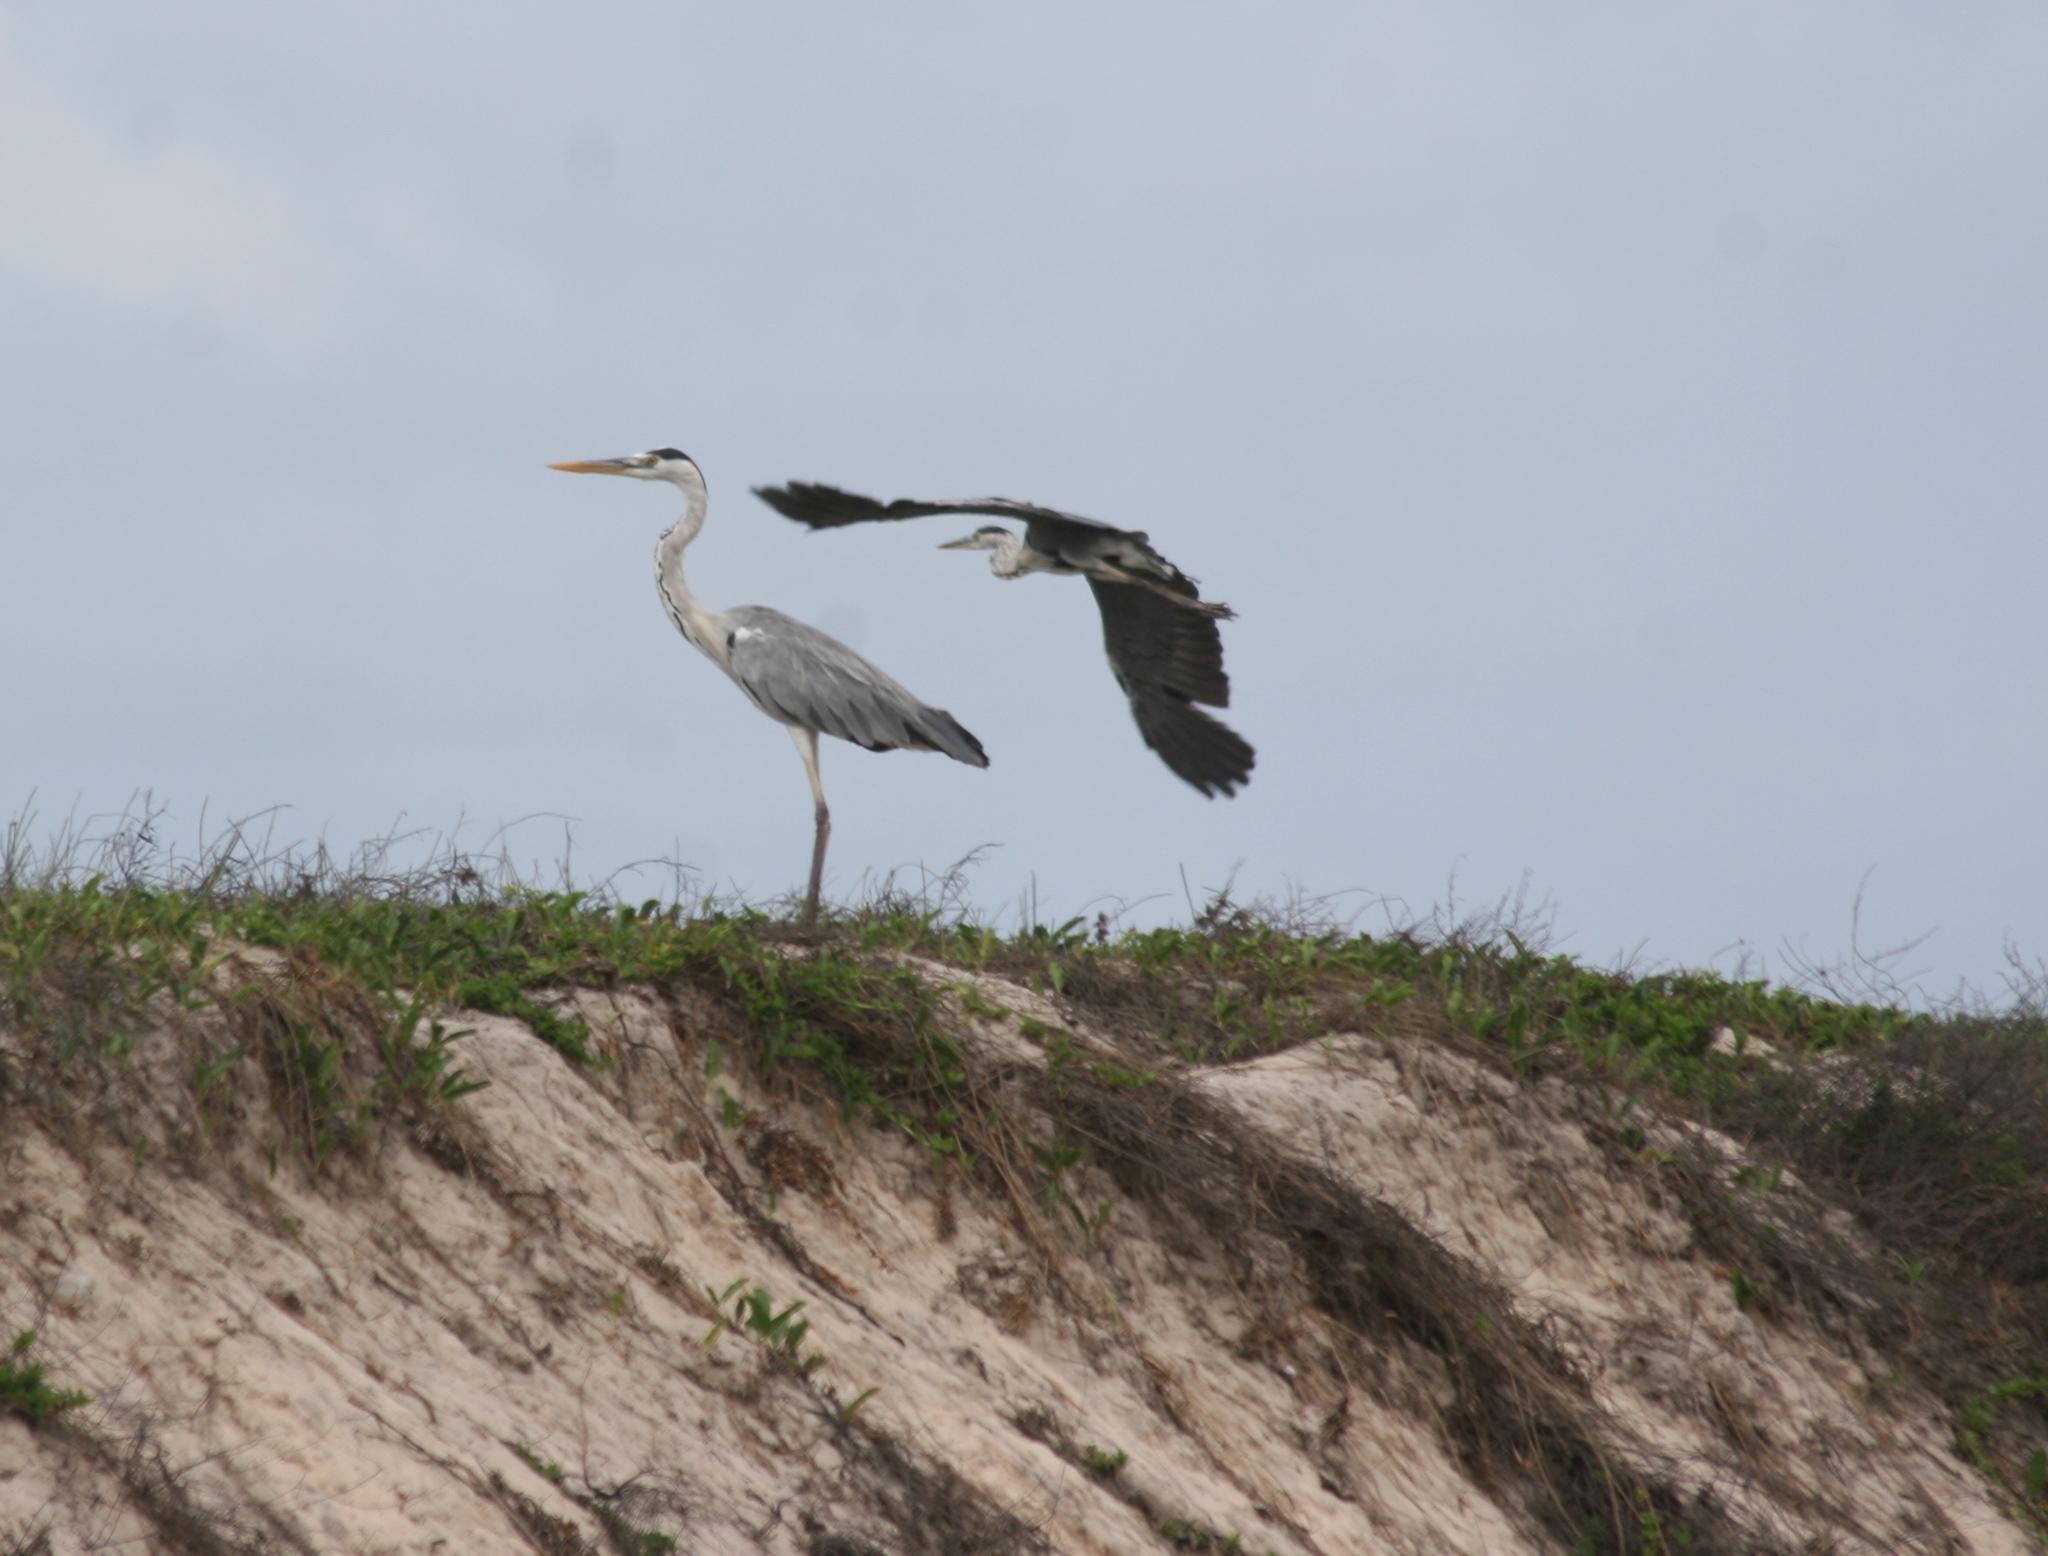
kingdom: Animalia
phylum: Chordata
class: Aves
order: Pelecaniformes
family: Ardeidae
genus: Ardea
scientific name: Ardea cinerea
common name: Grey heron
